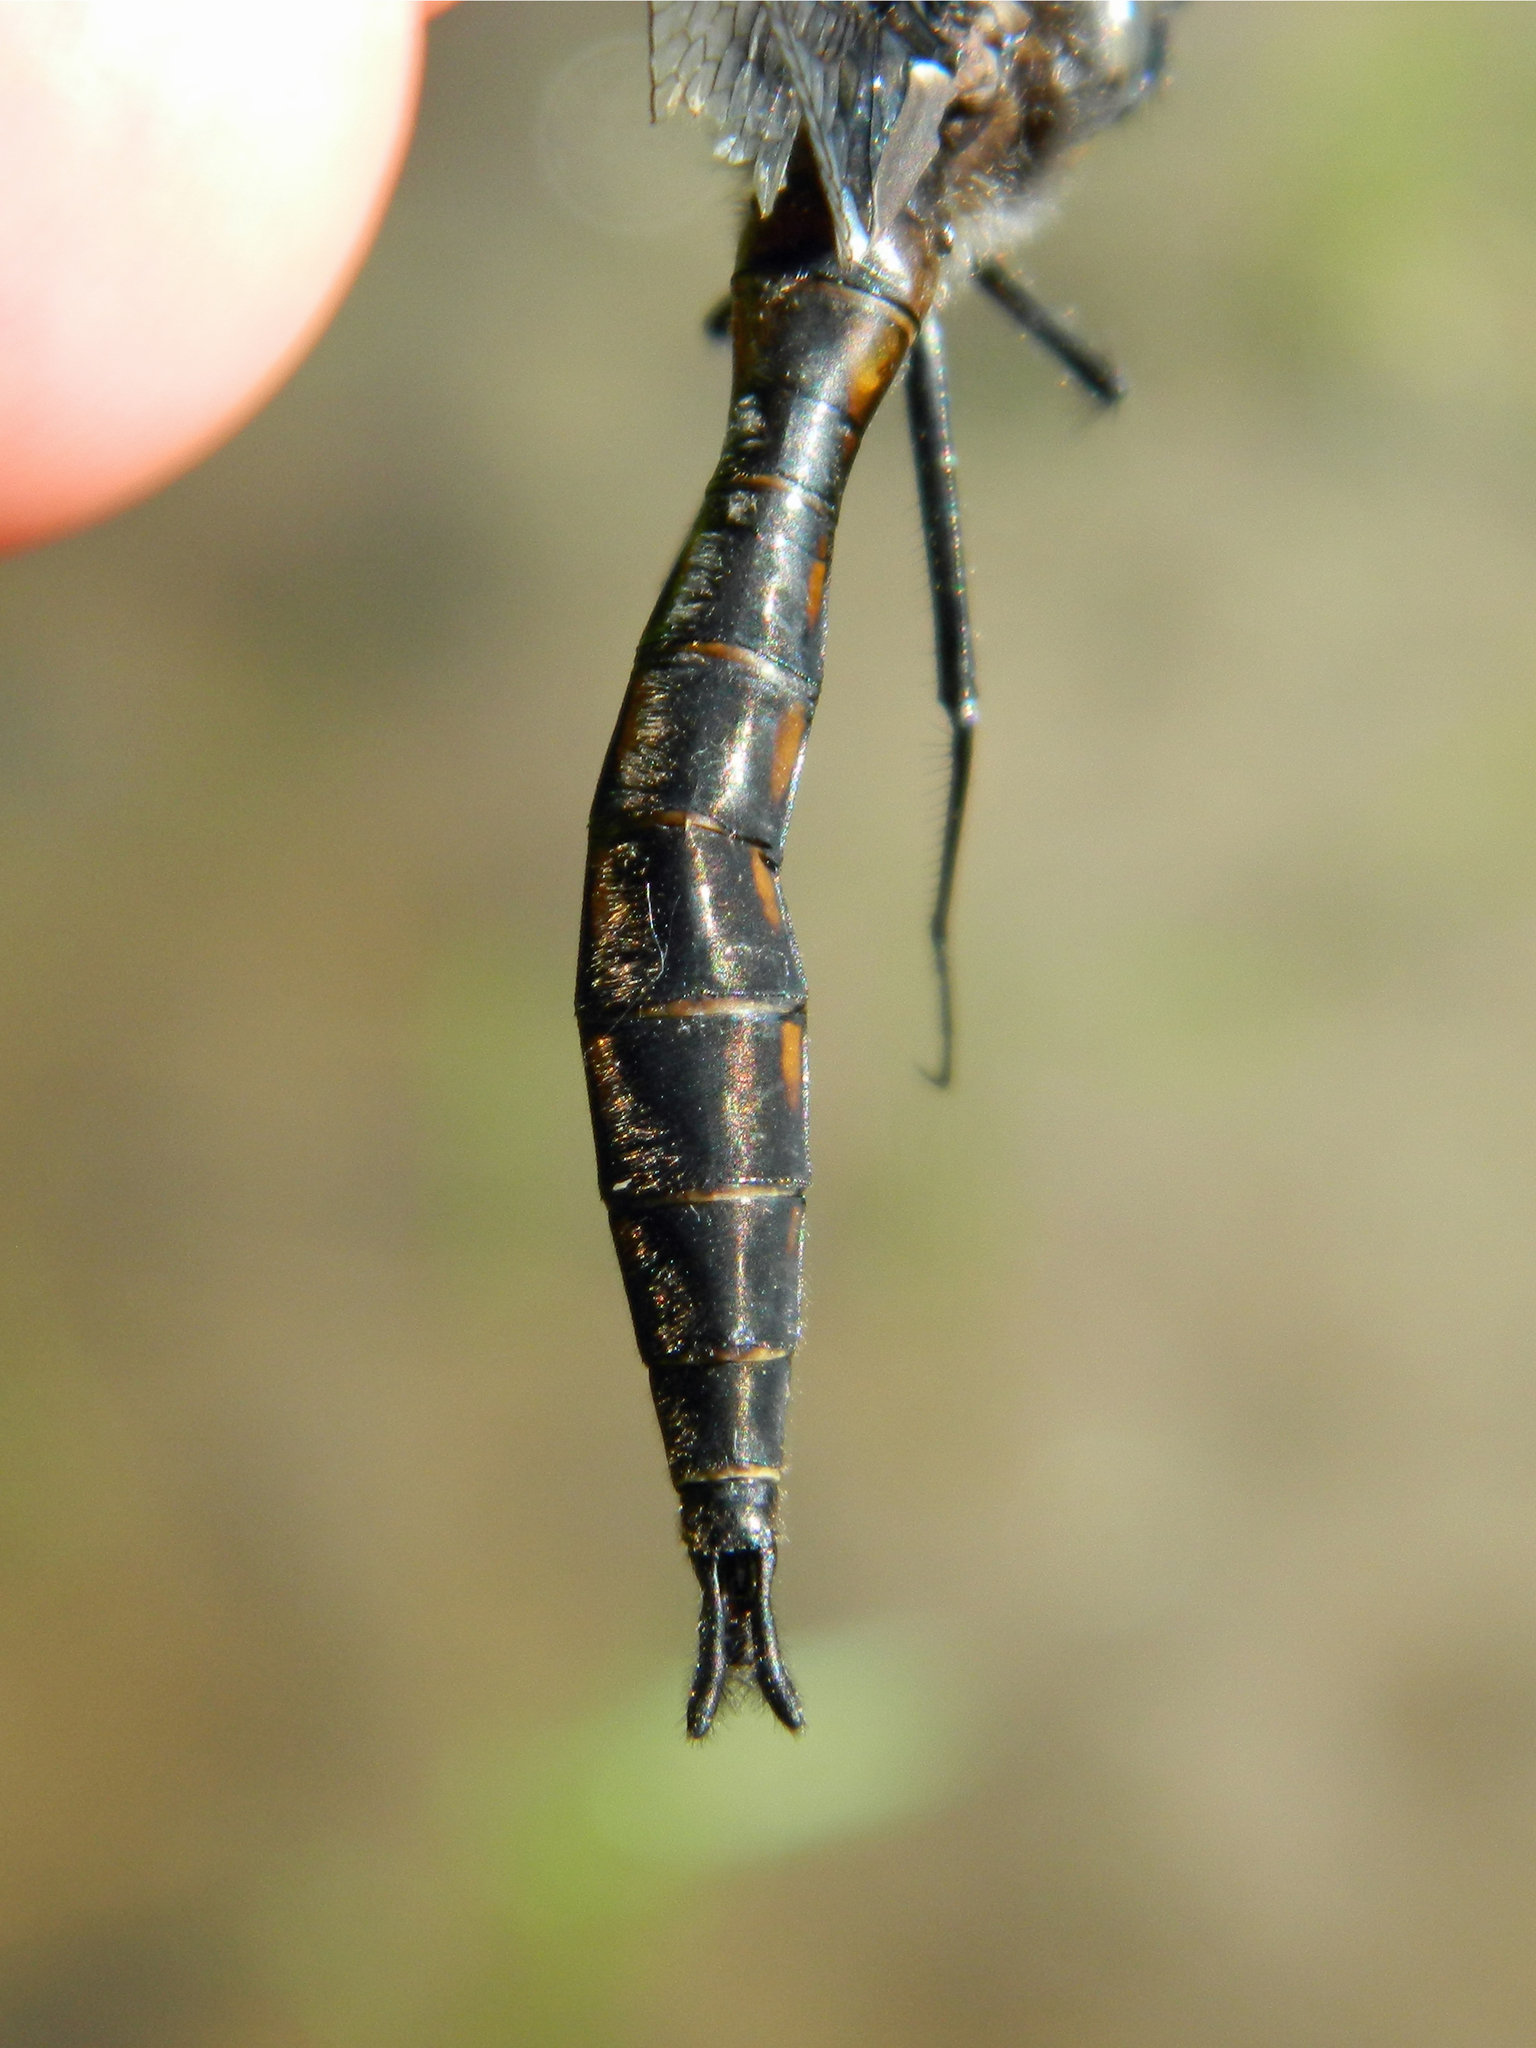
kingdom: Animalia
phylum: Arthropoda
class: Insecta
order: Odonata
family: Corduliidae
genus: Epitheca
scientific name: Epitheca spinigera
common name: Spiny baskettail
